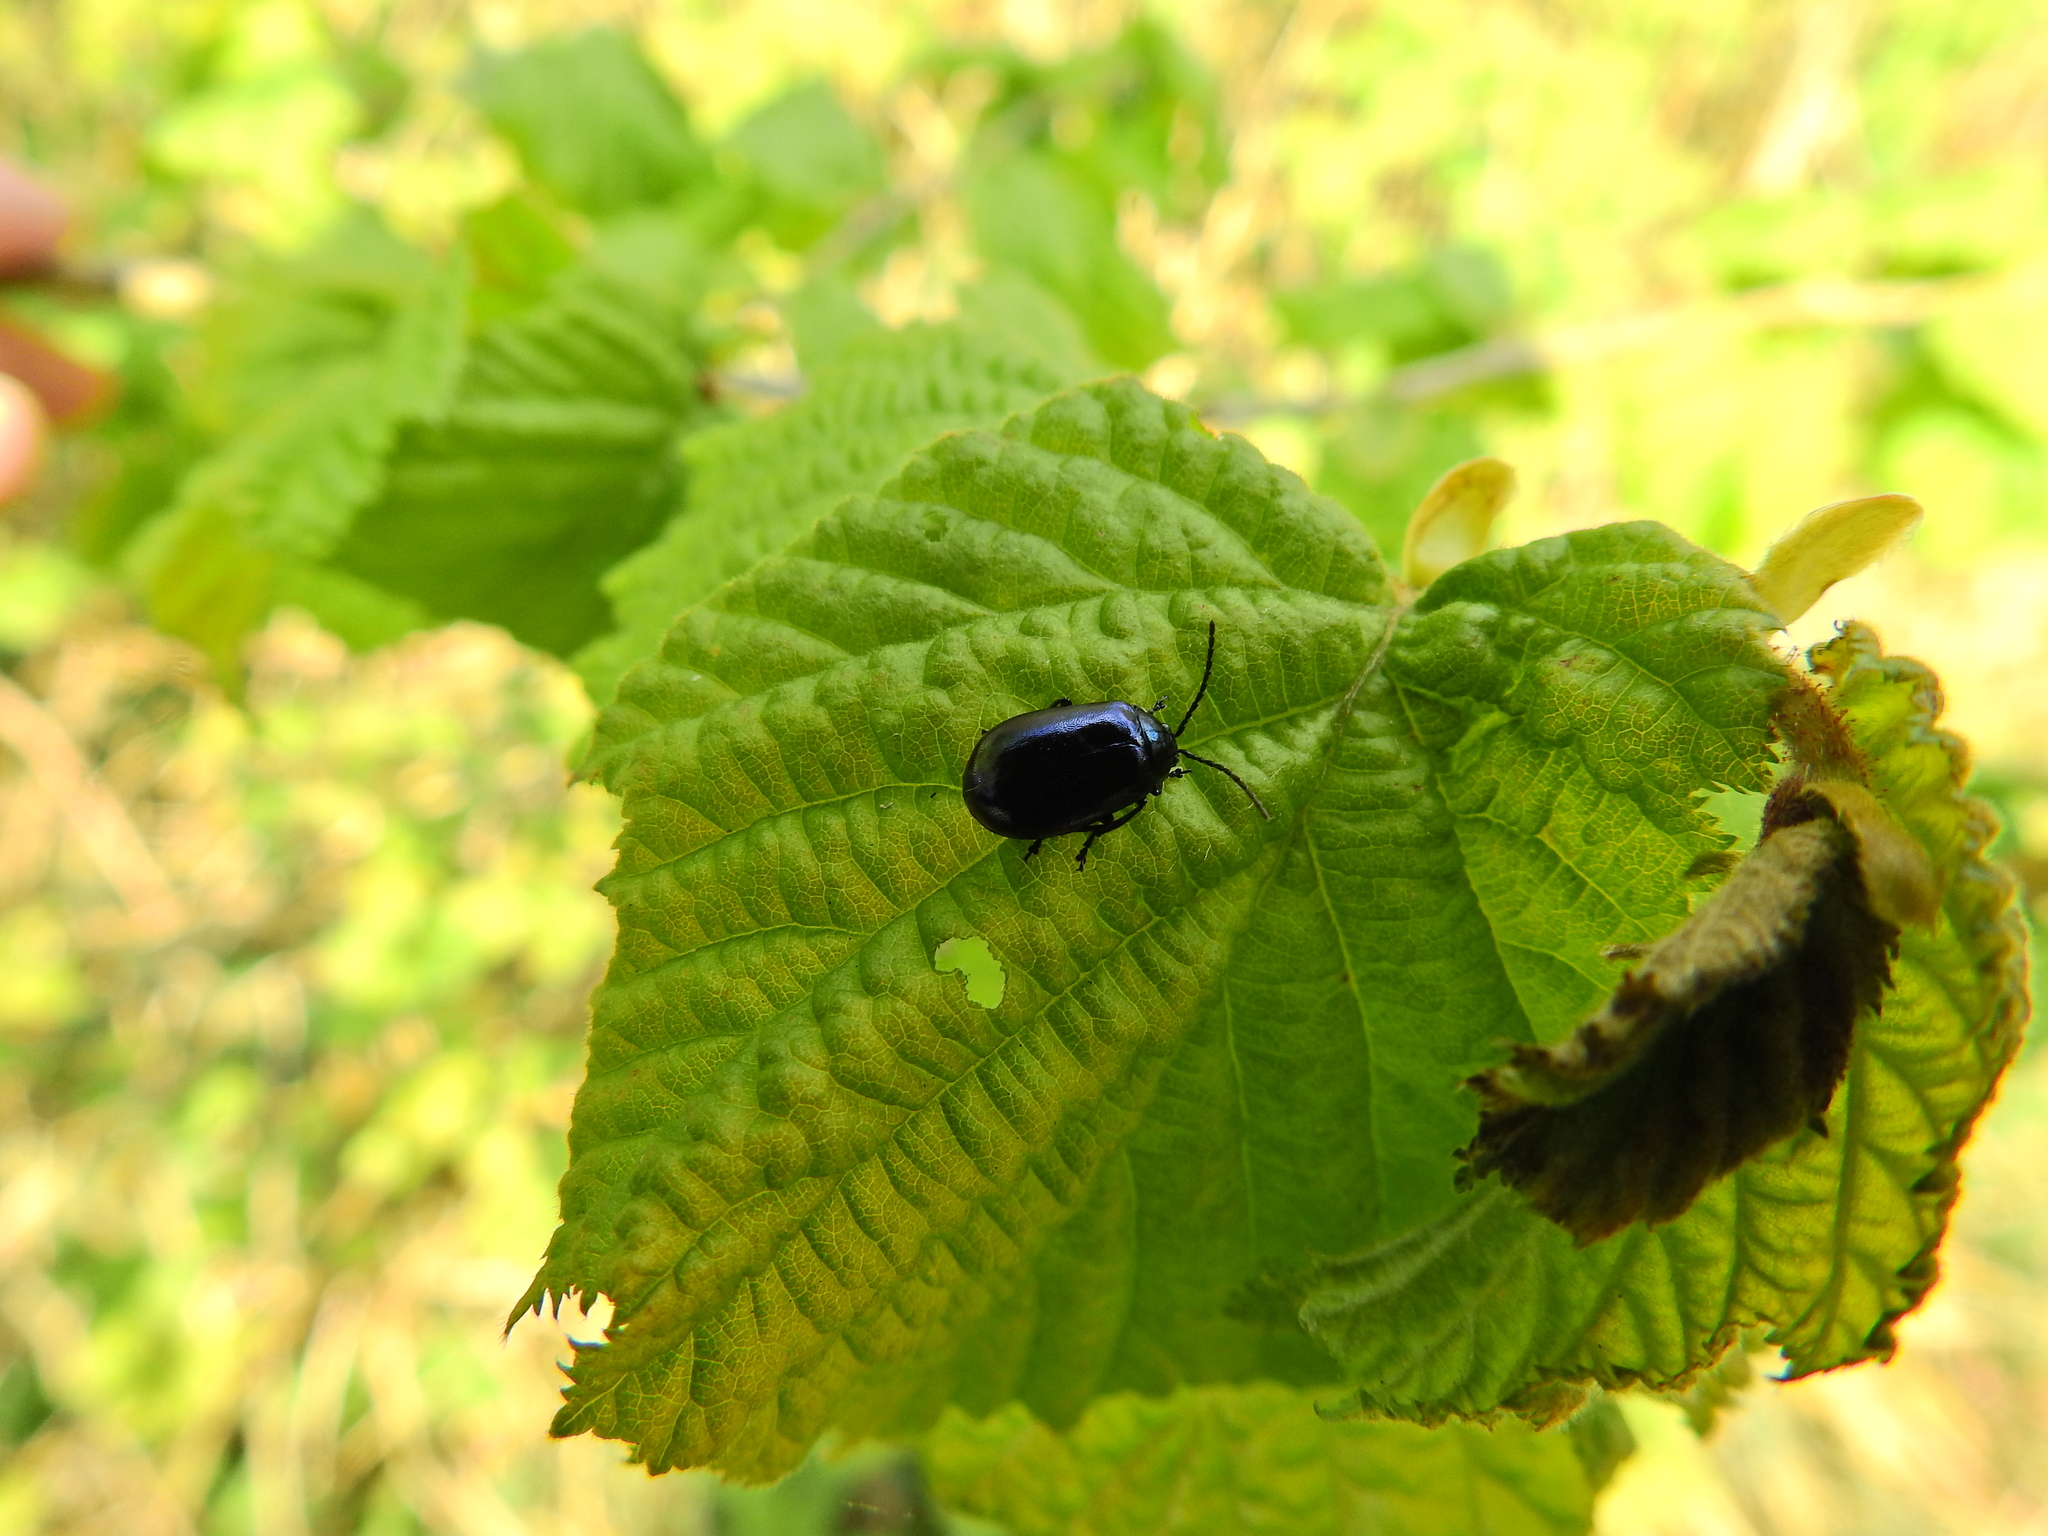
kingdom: Animalia
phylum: Arthropoda
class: Insecta
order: Coleoptera
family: Chrysomelidae
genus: Agelastica
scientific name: Agelastica alni
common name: Alder leaf beetle
